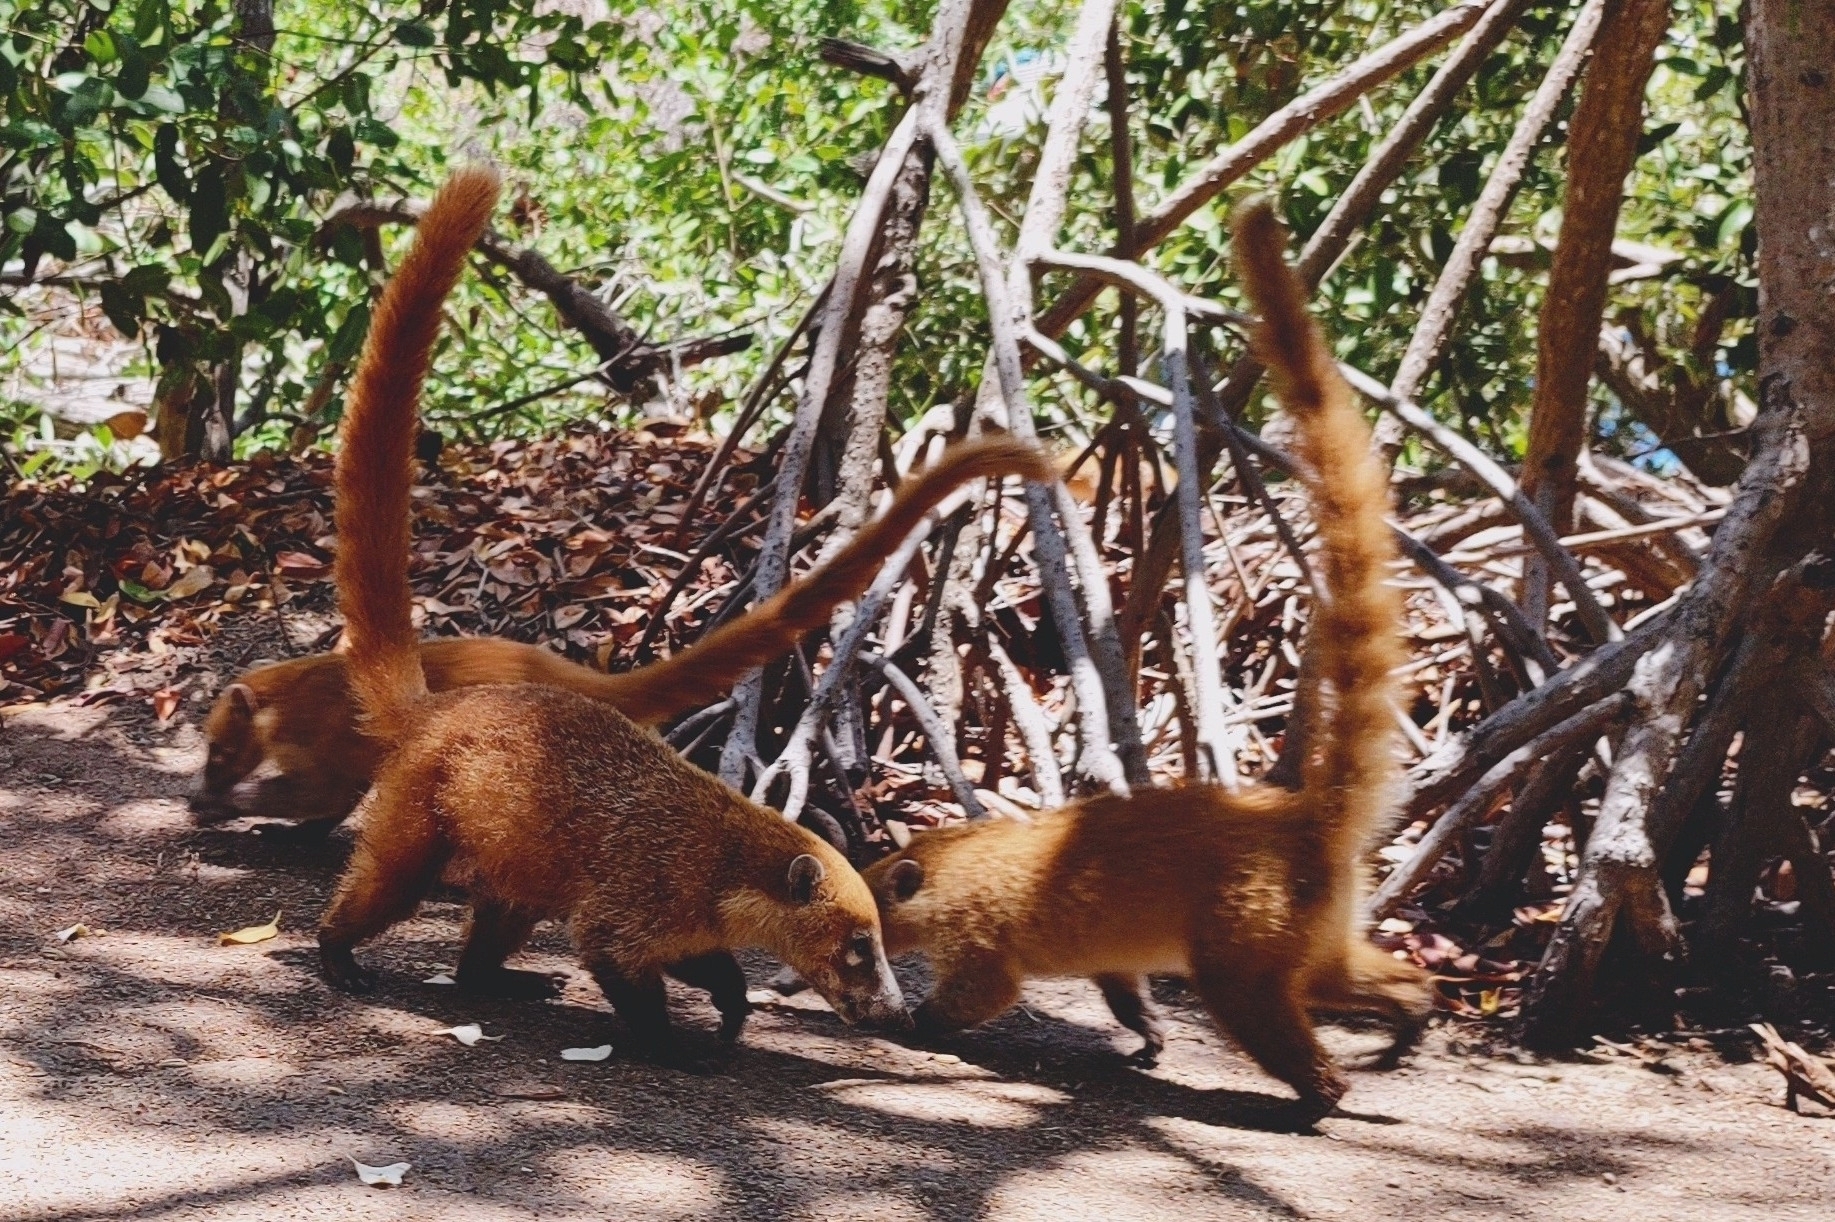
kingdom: Animalia
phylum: Chordata
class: Mammalia
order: Carnivora
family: Procyonidae
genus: Nasua
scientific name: Nasua narica
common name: White-nosed coati
